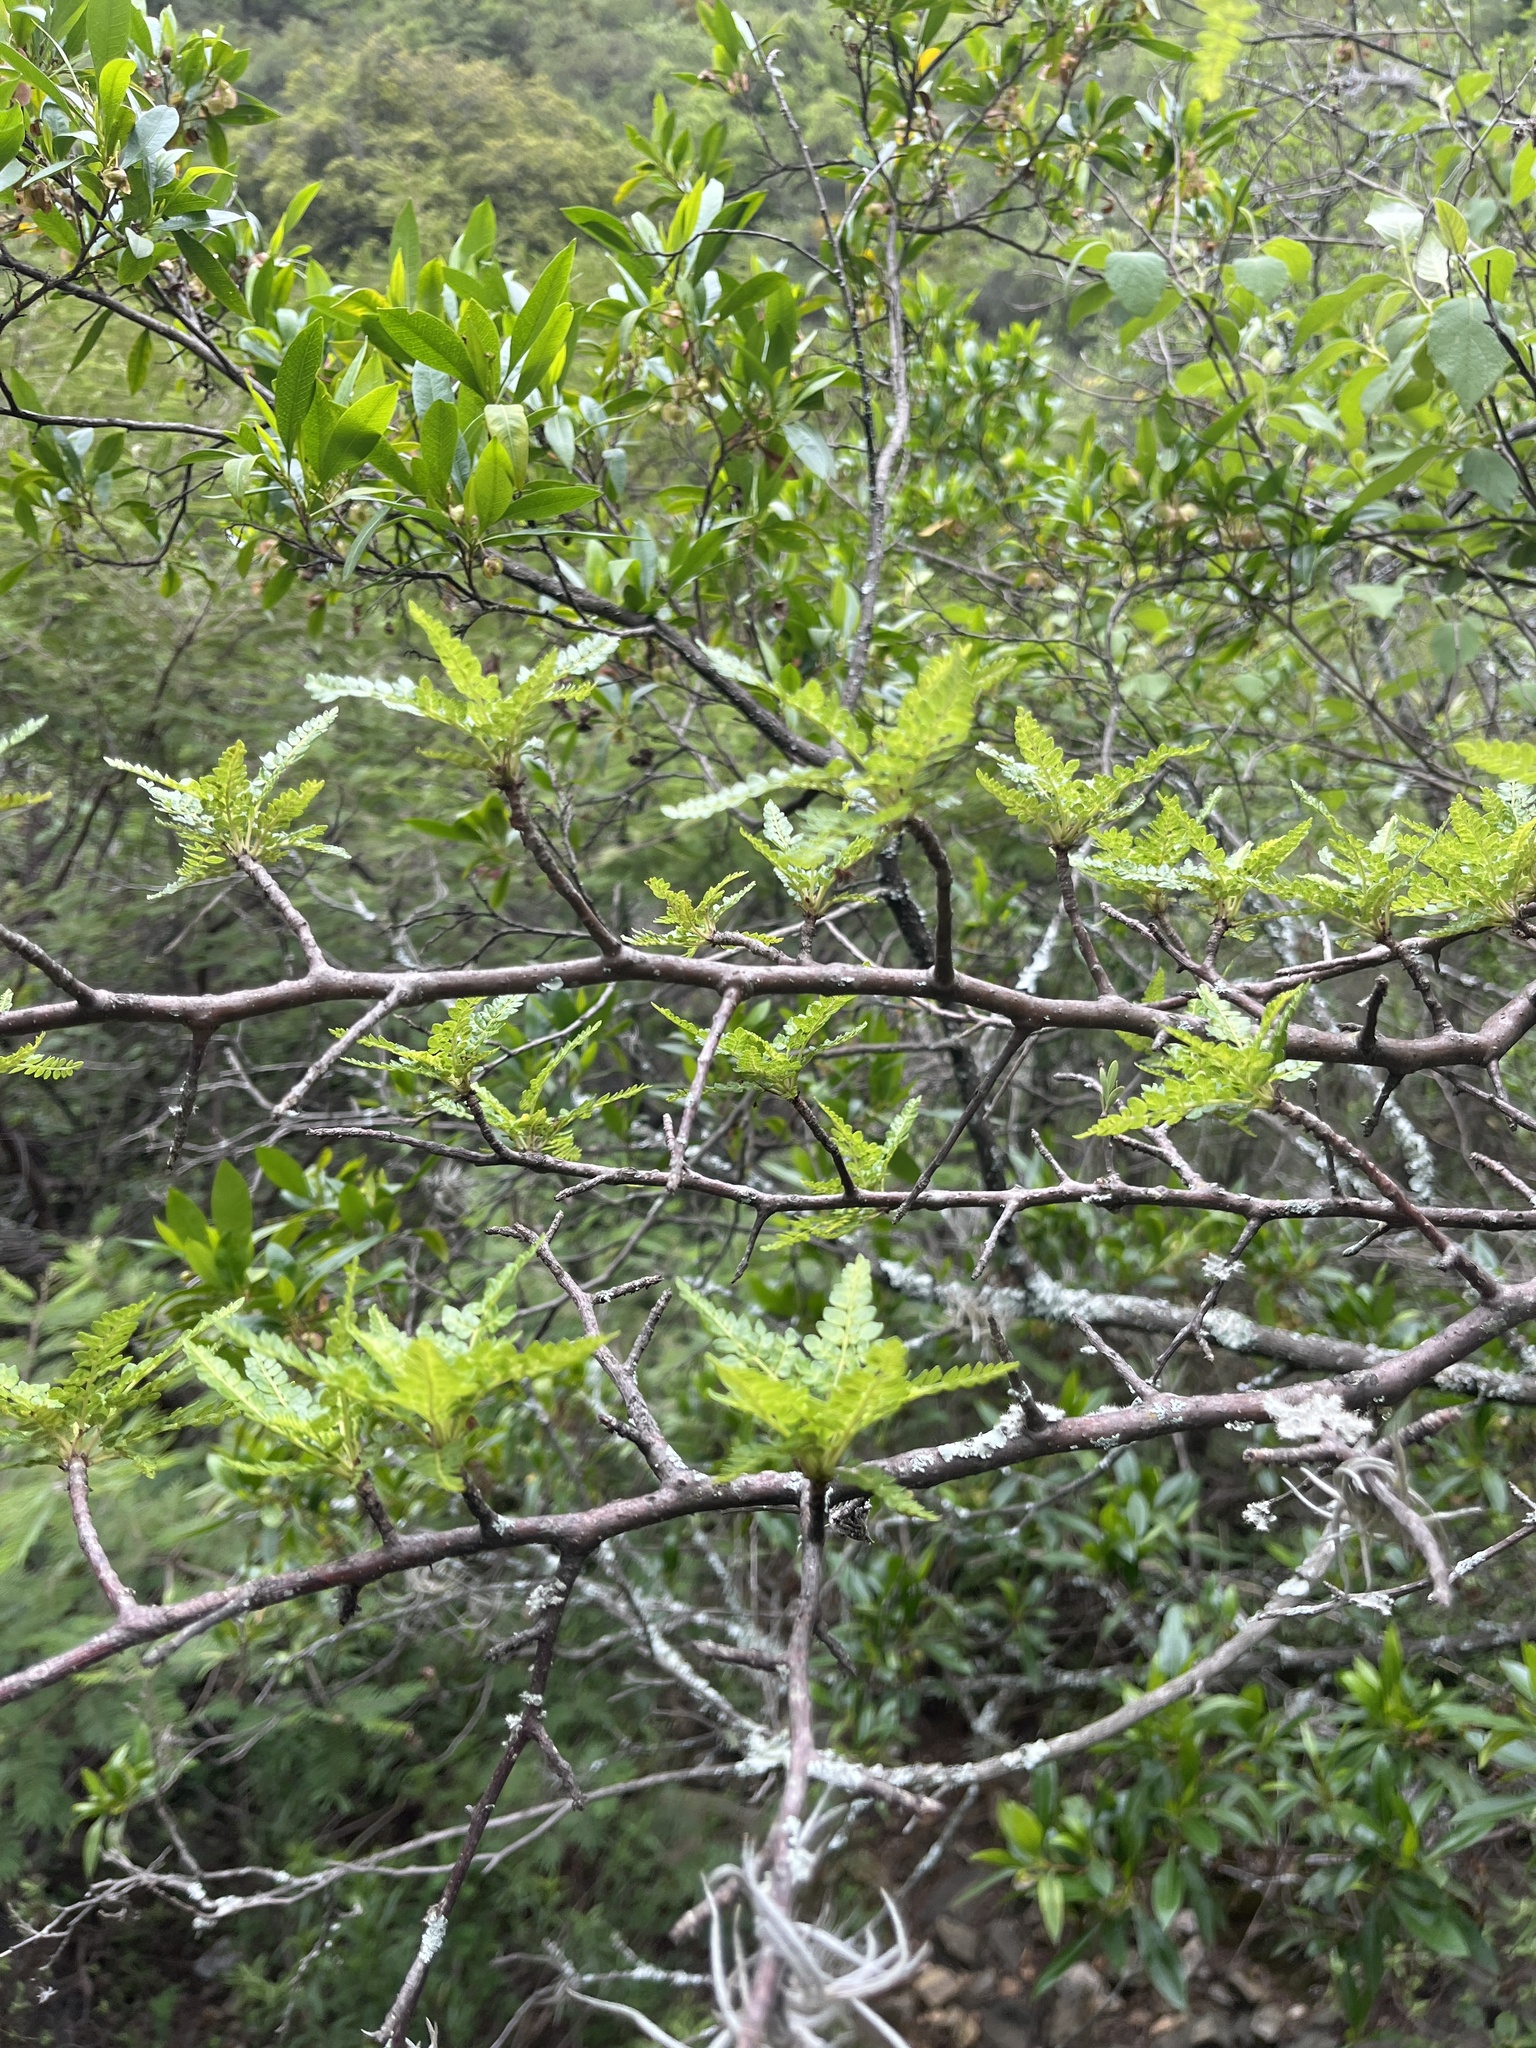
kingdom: Plantae
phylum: Tracheophyta
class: Magnoliopsida
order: Sapindales
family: Burseraceae
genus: Bursera
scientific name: Bursera bipinnata
